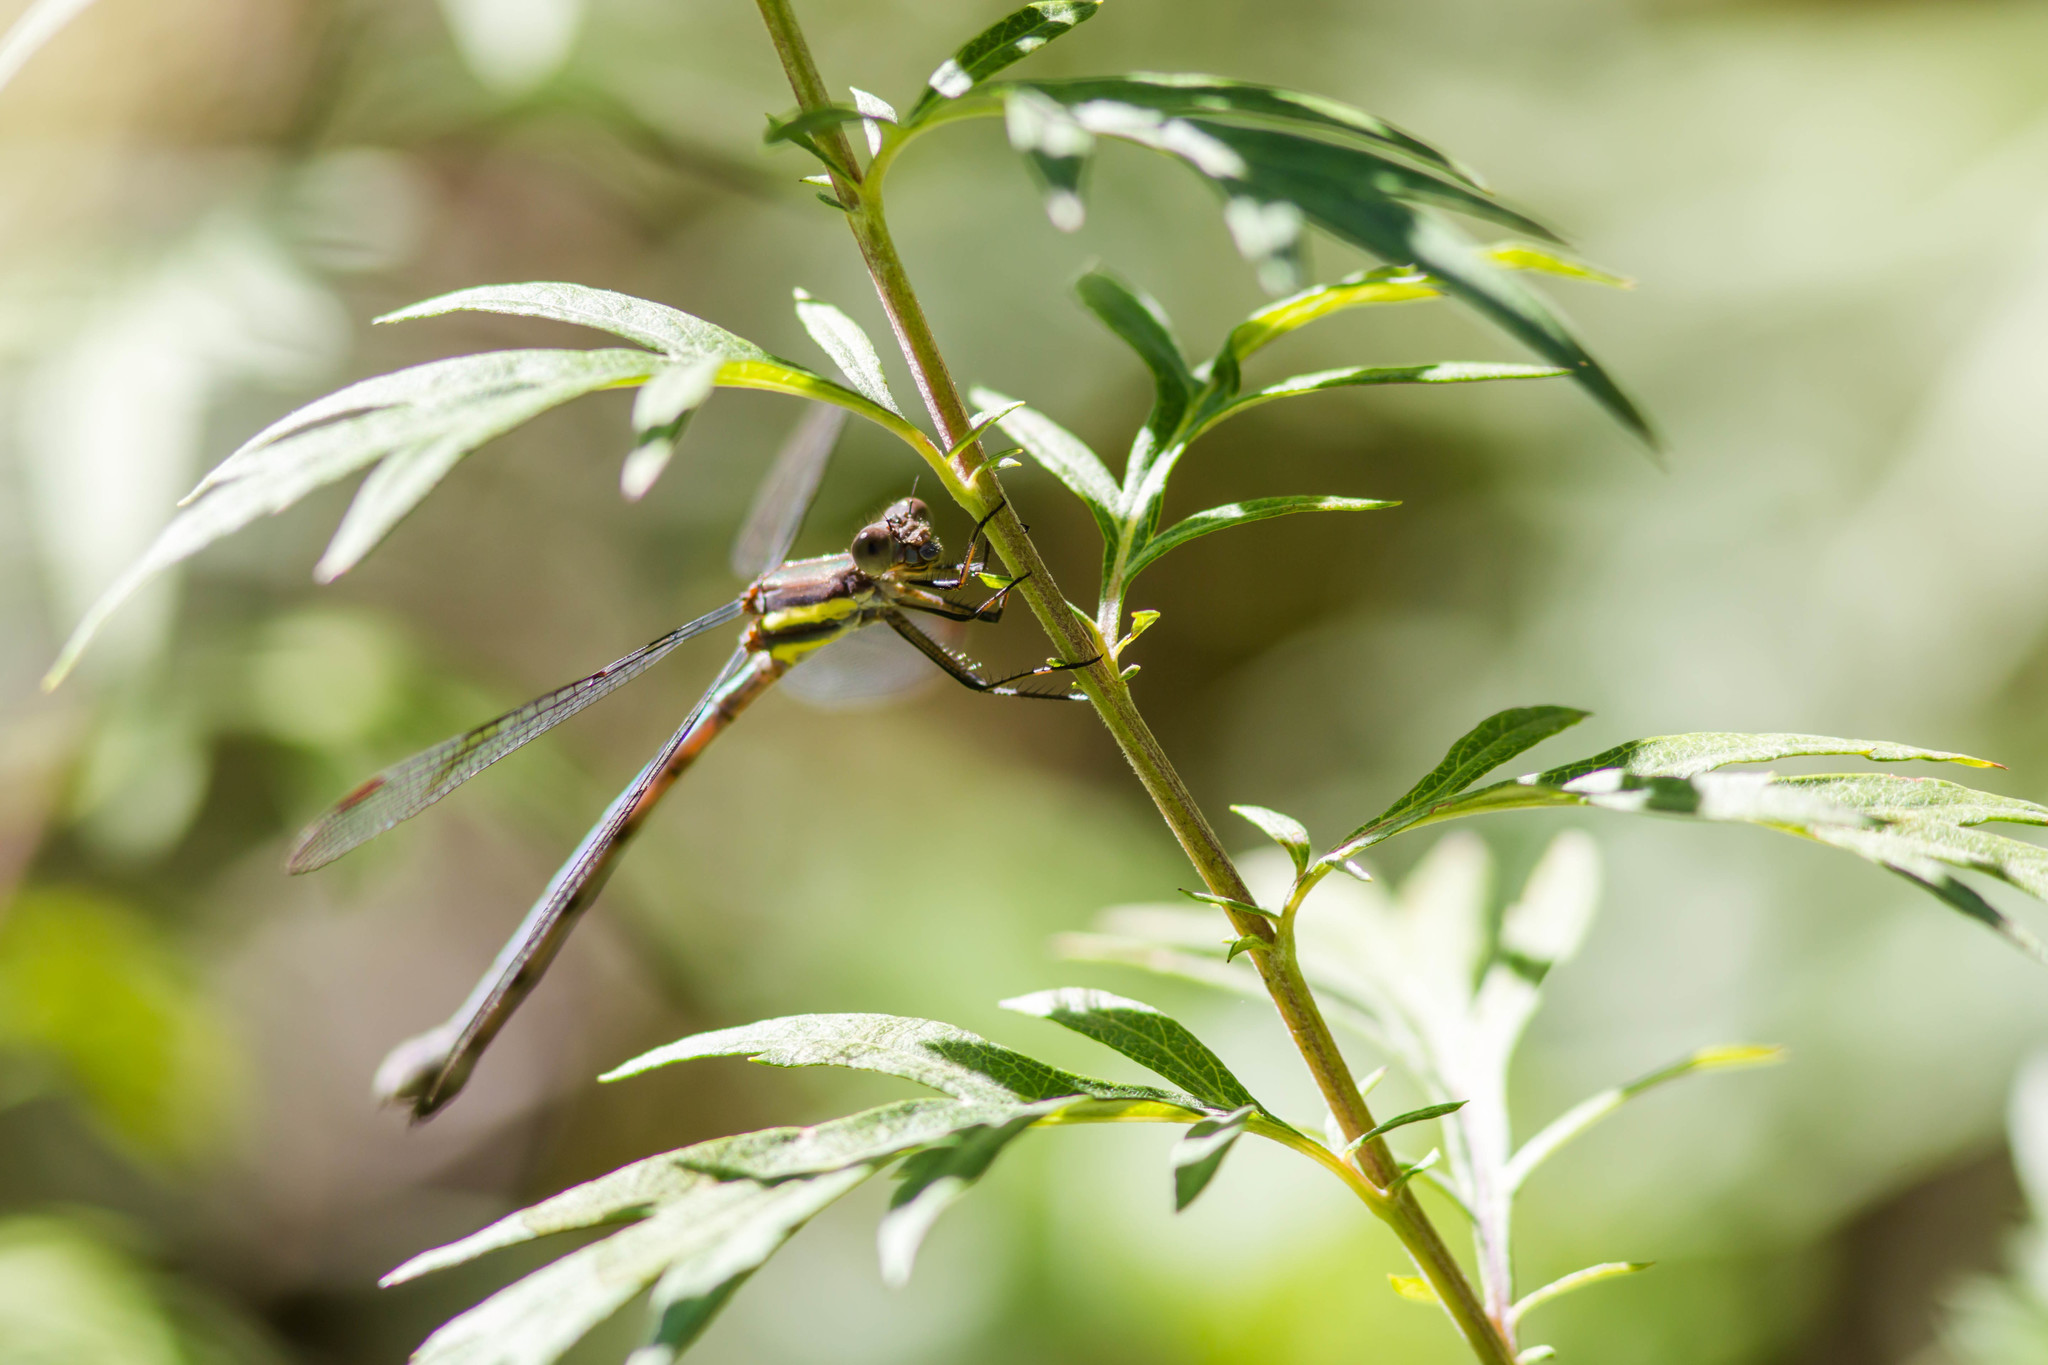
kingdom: Animalia
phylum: Arthropoda
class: Insecta
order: Odonata
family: Lestidae
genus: Archilestes
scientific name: Archilestes grandis
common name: Great spreadwing
